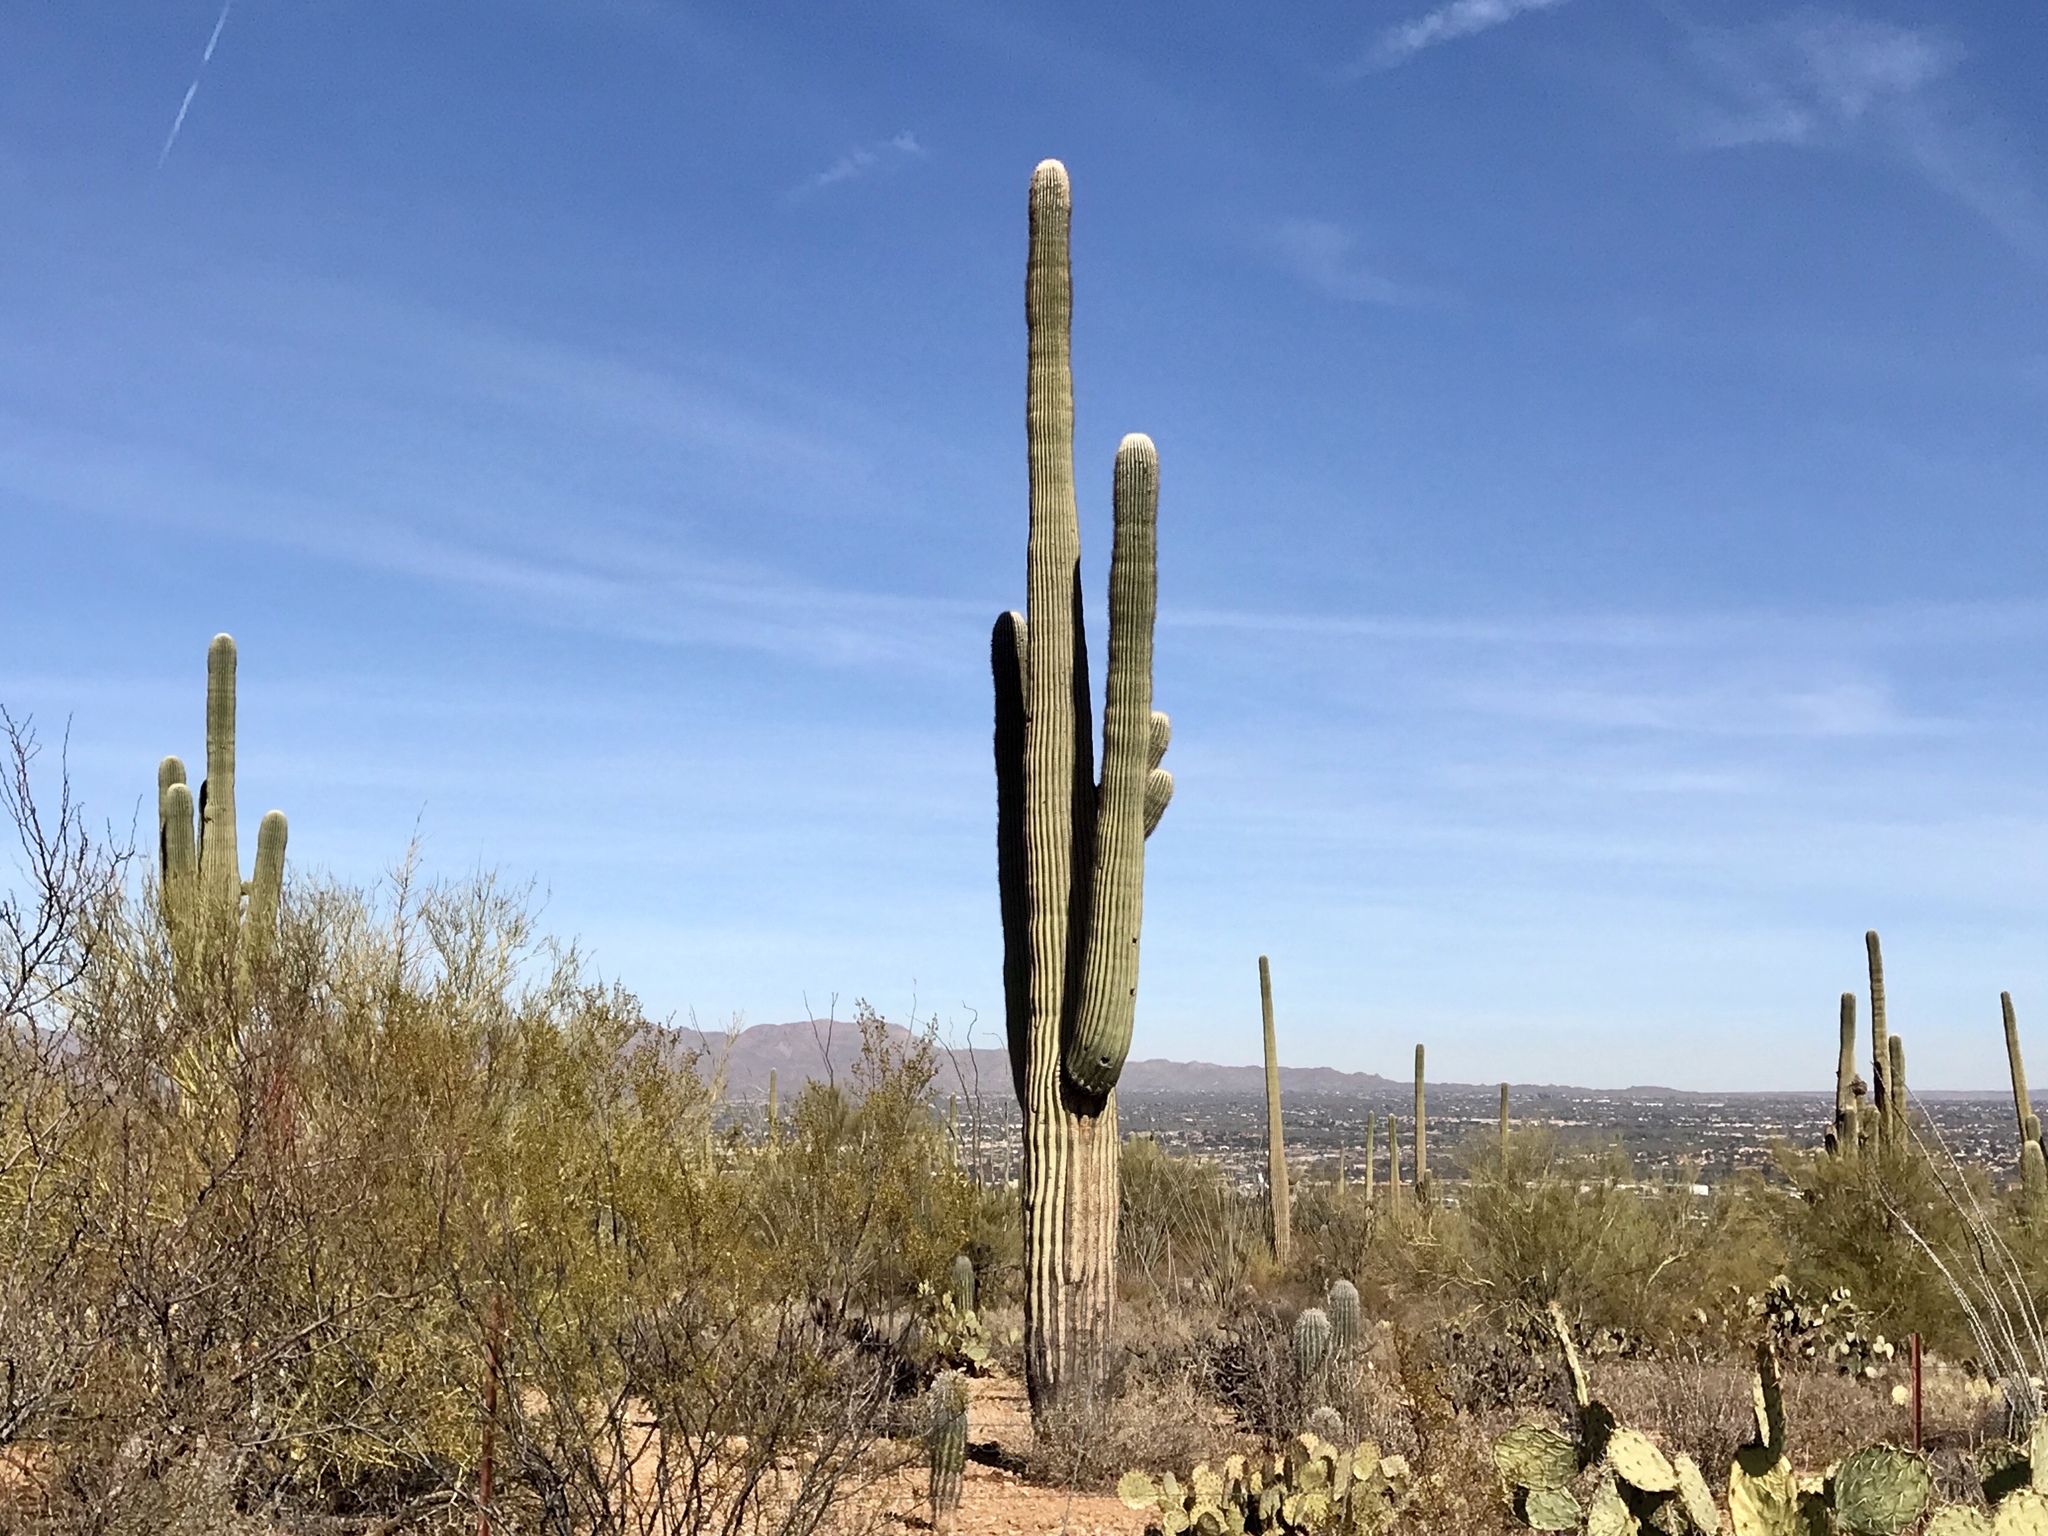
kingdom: Plantae
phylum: Tracheophyta
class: Magnoliopsida
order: Caryophyllales
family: Cactaceae
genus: Carnegiea
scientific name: Carnegiea gigantea
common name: Saguaro
